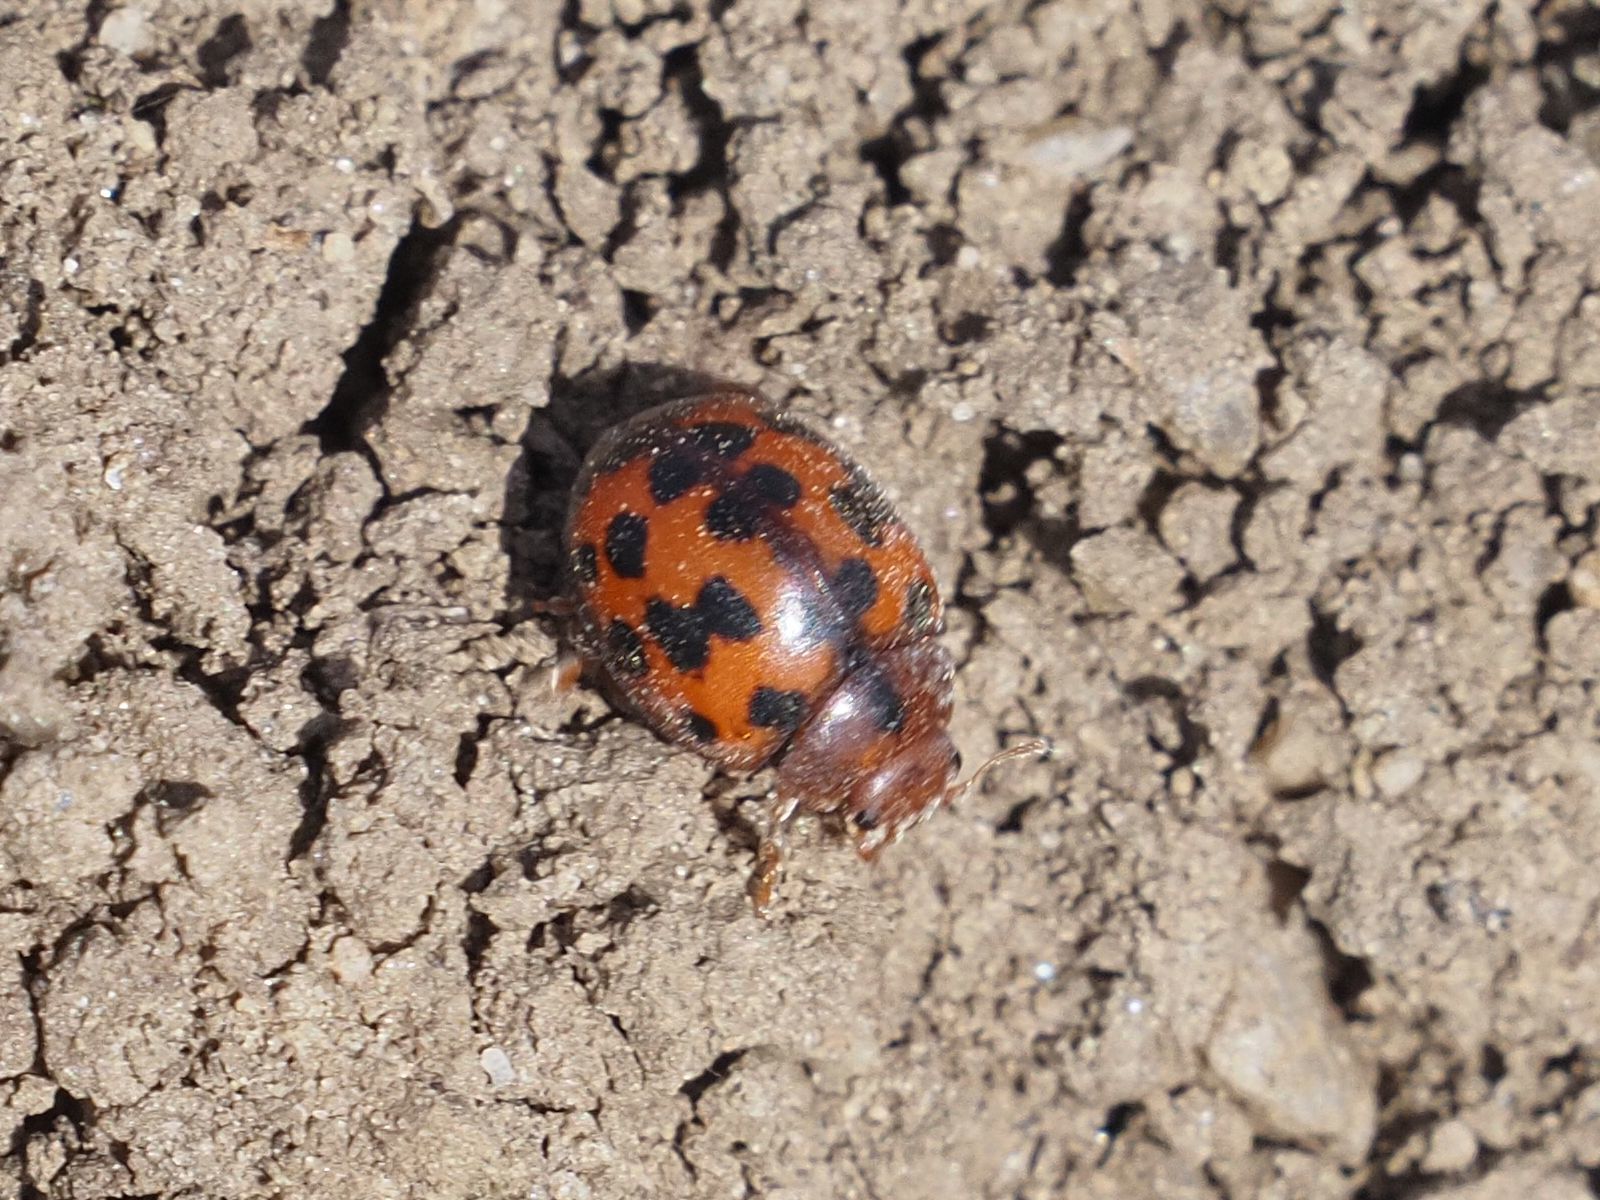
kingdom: Animalia
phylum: Arthropoda
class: Insecta
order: Coleoptera
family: Coccinellidae
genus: Subcoccinella
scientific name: Subcoccinella vigintiquatuorpunctata
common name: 24-spot ladybird
